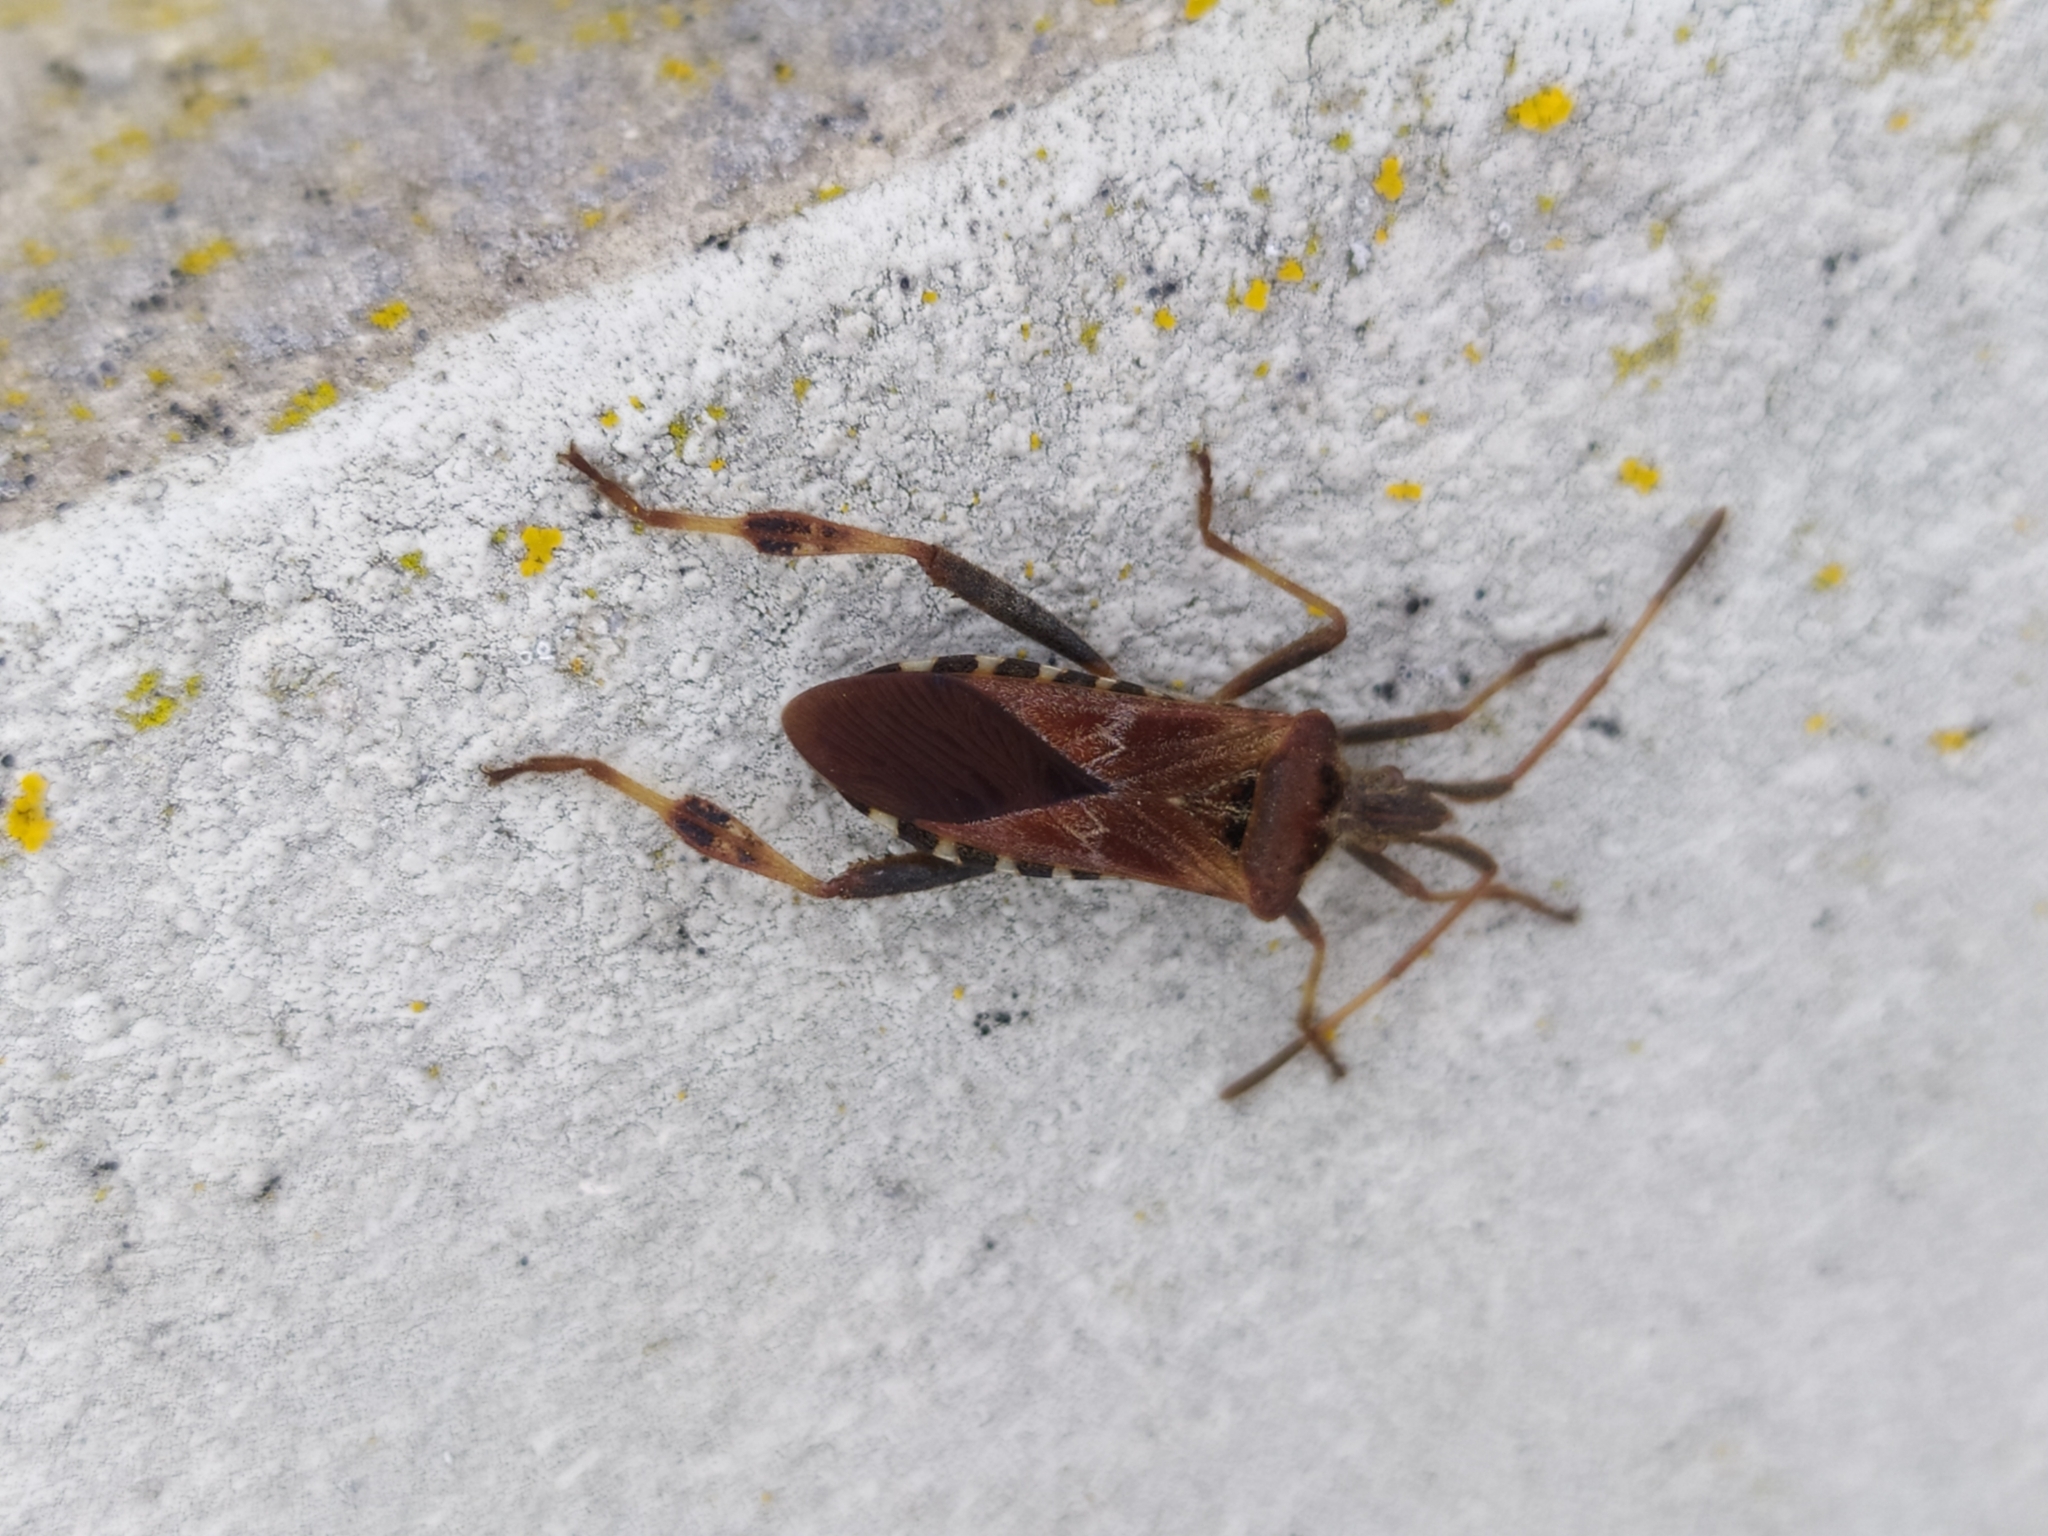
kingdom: Animalia
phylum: Arthropoda
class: Insecta
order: Hemiptera
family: Coreidae
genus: Leptoglossus
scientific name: Leptoglossus occidentalis
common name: Western conifer-seed bug
